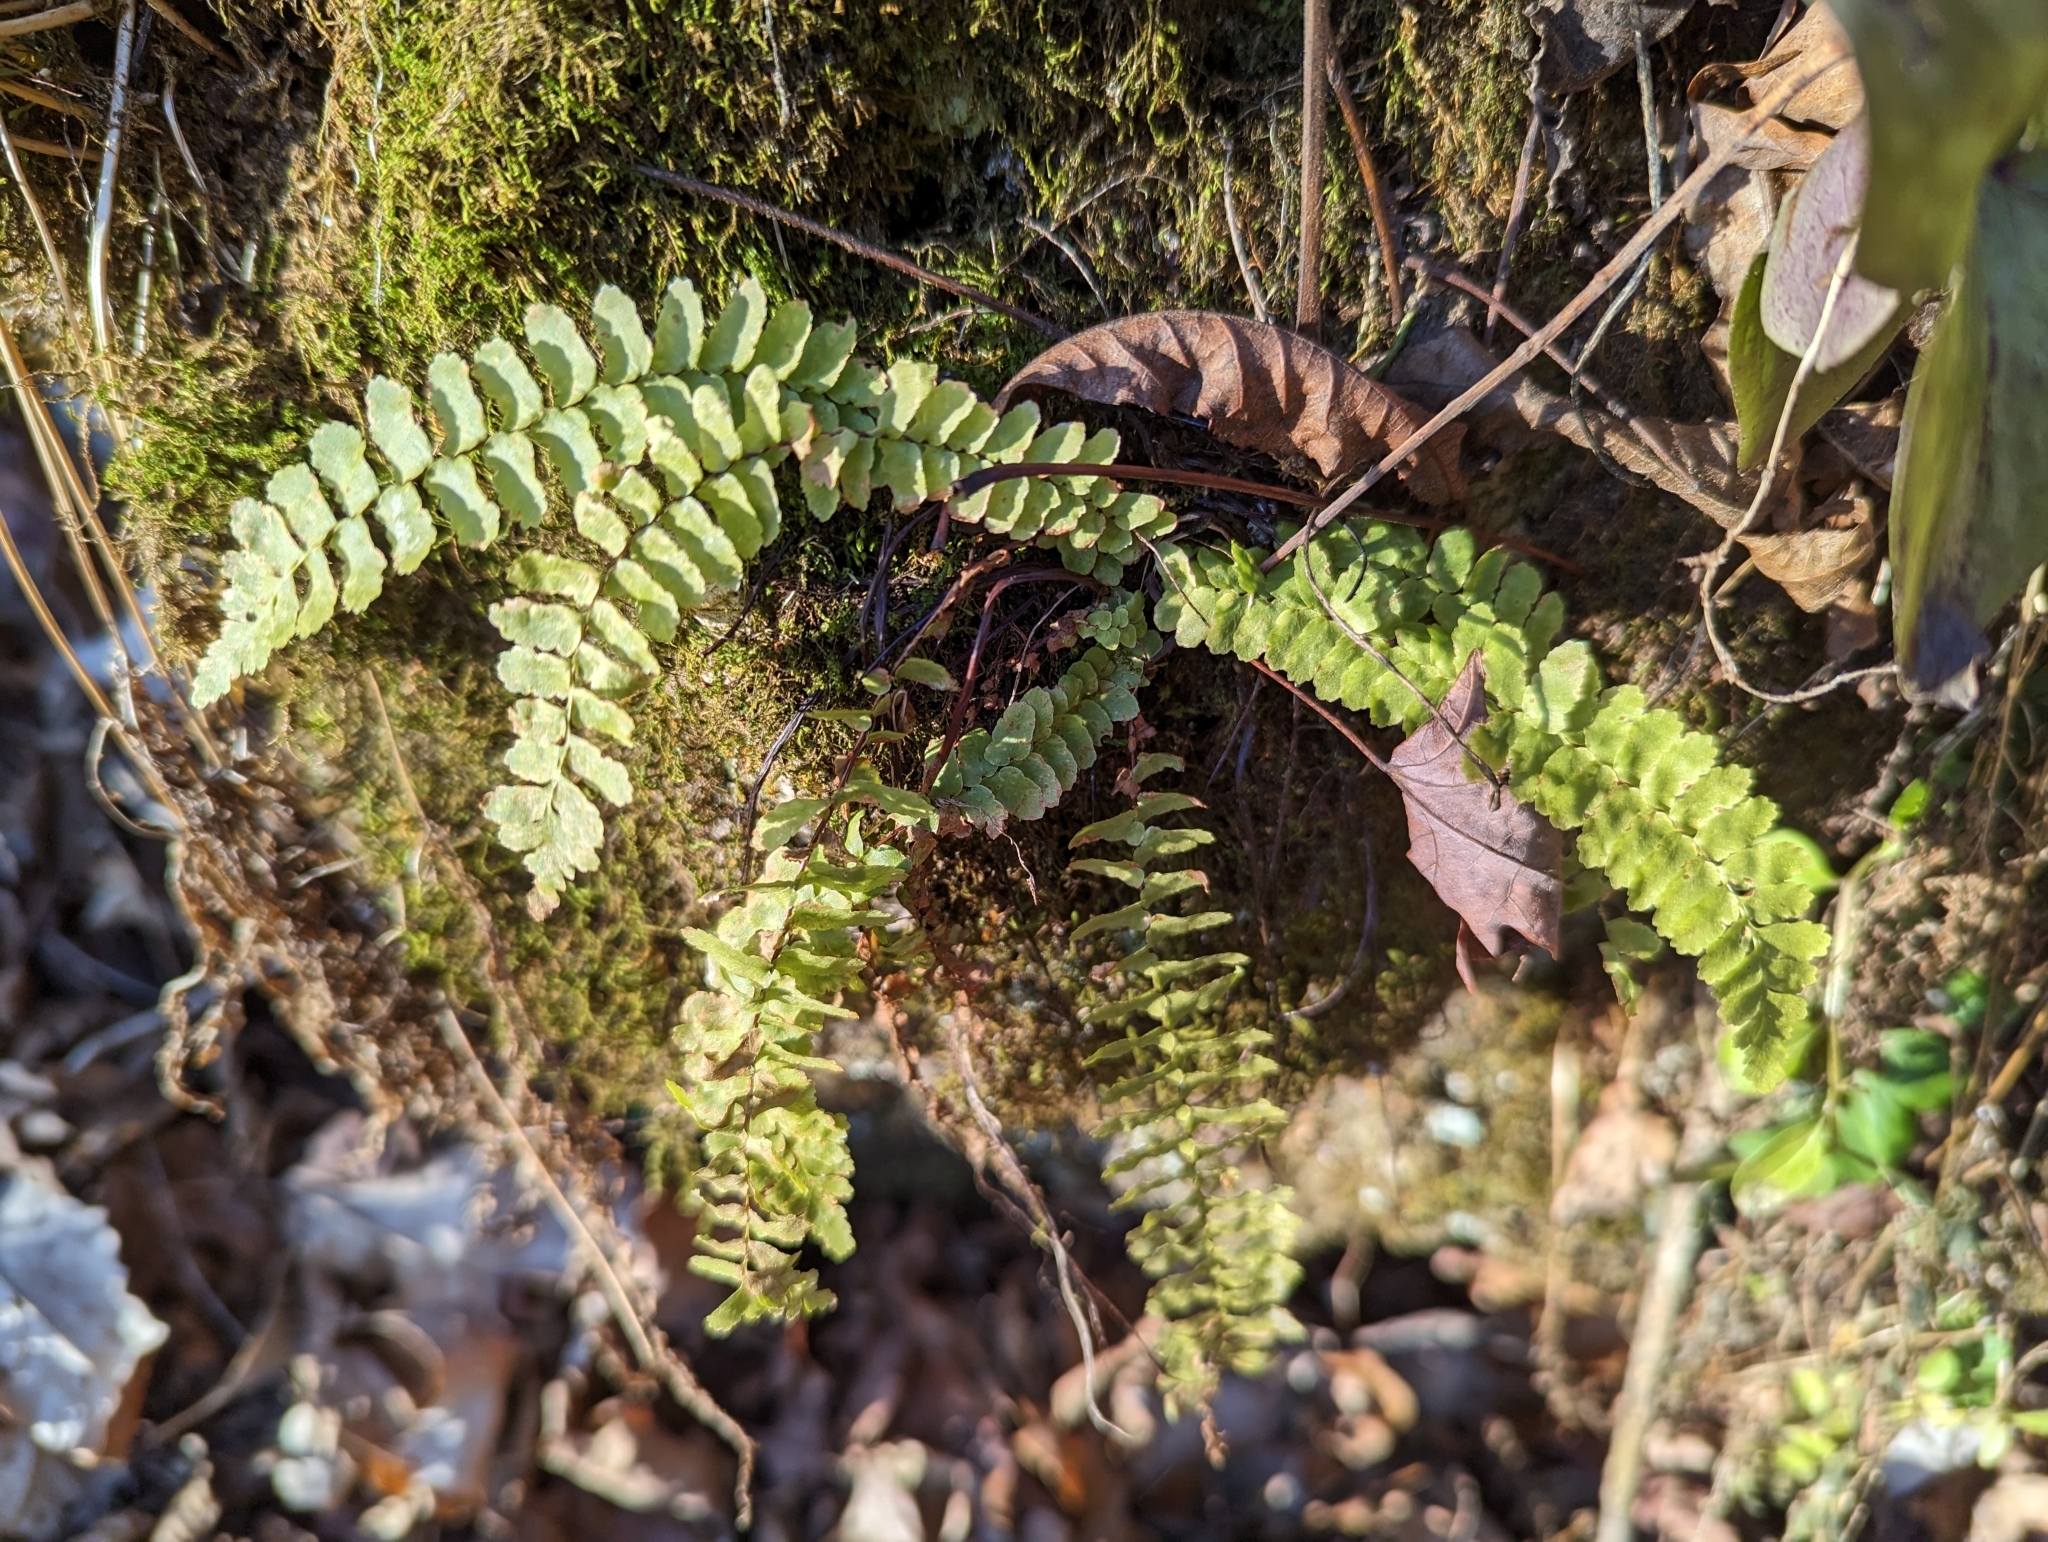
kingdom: Plantae
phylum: Tracheophyta
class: Polypodiopsida
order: Polypodiales
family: Aspleniaceae
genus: Asplenium
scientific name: Asplenium platyneuron
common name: Ebony spleenwort
